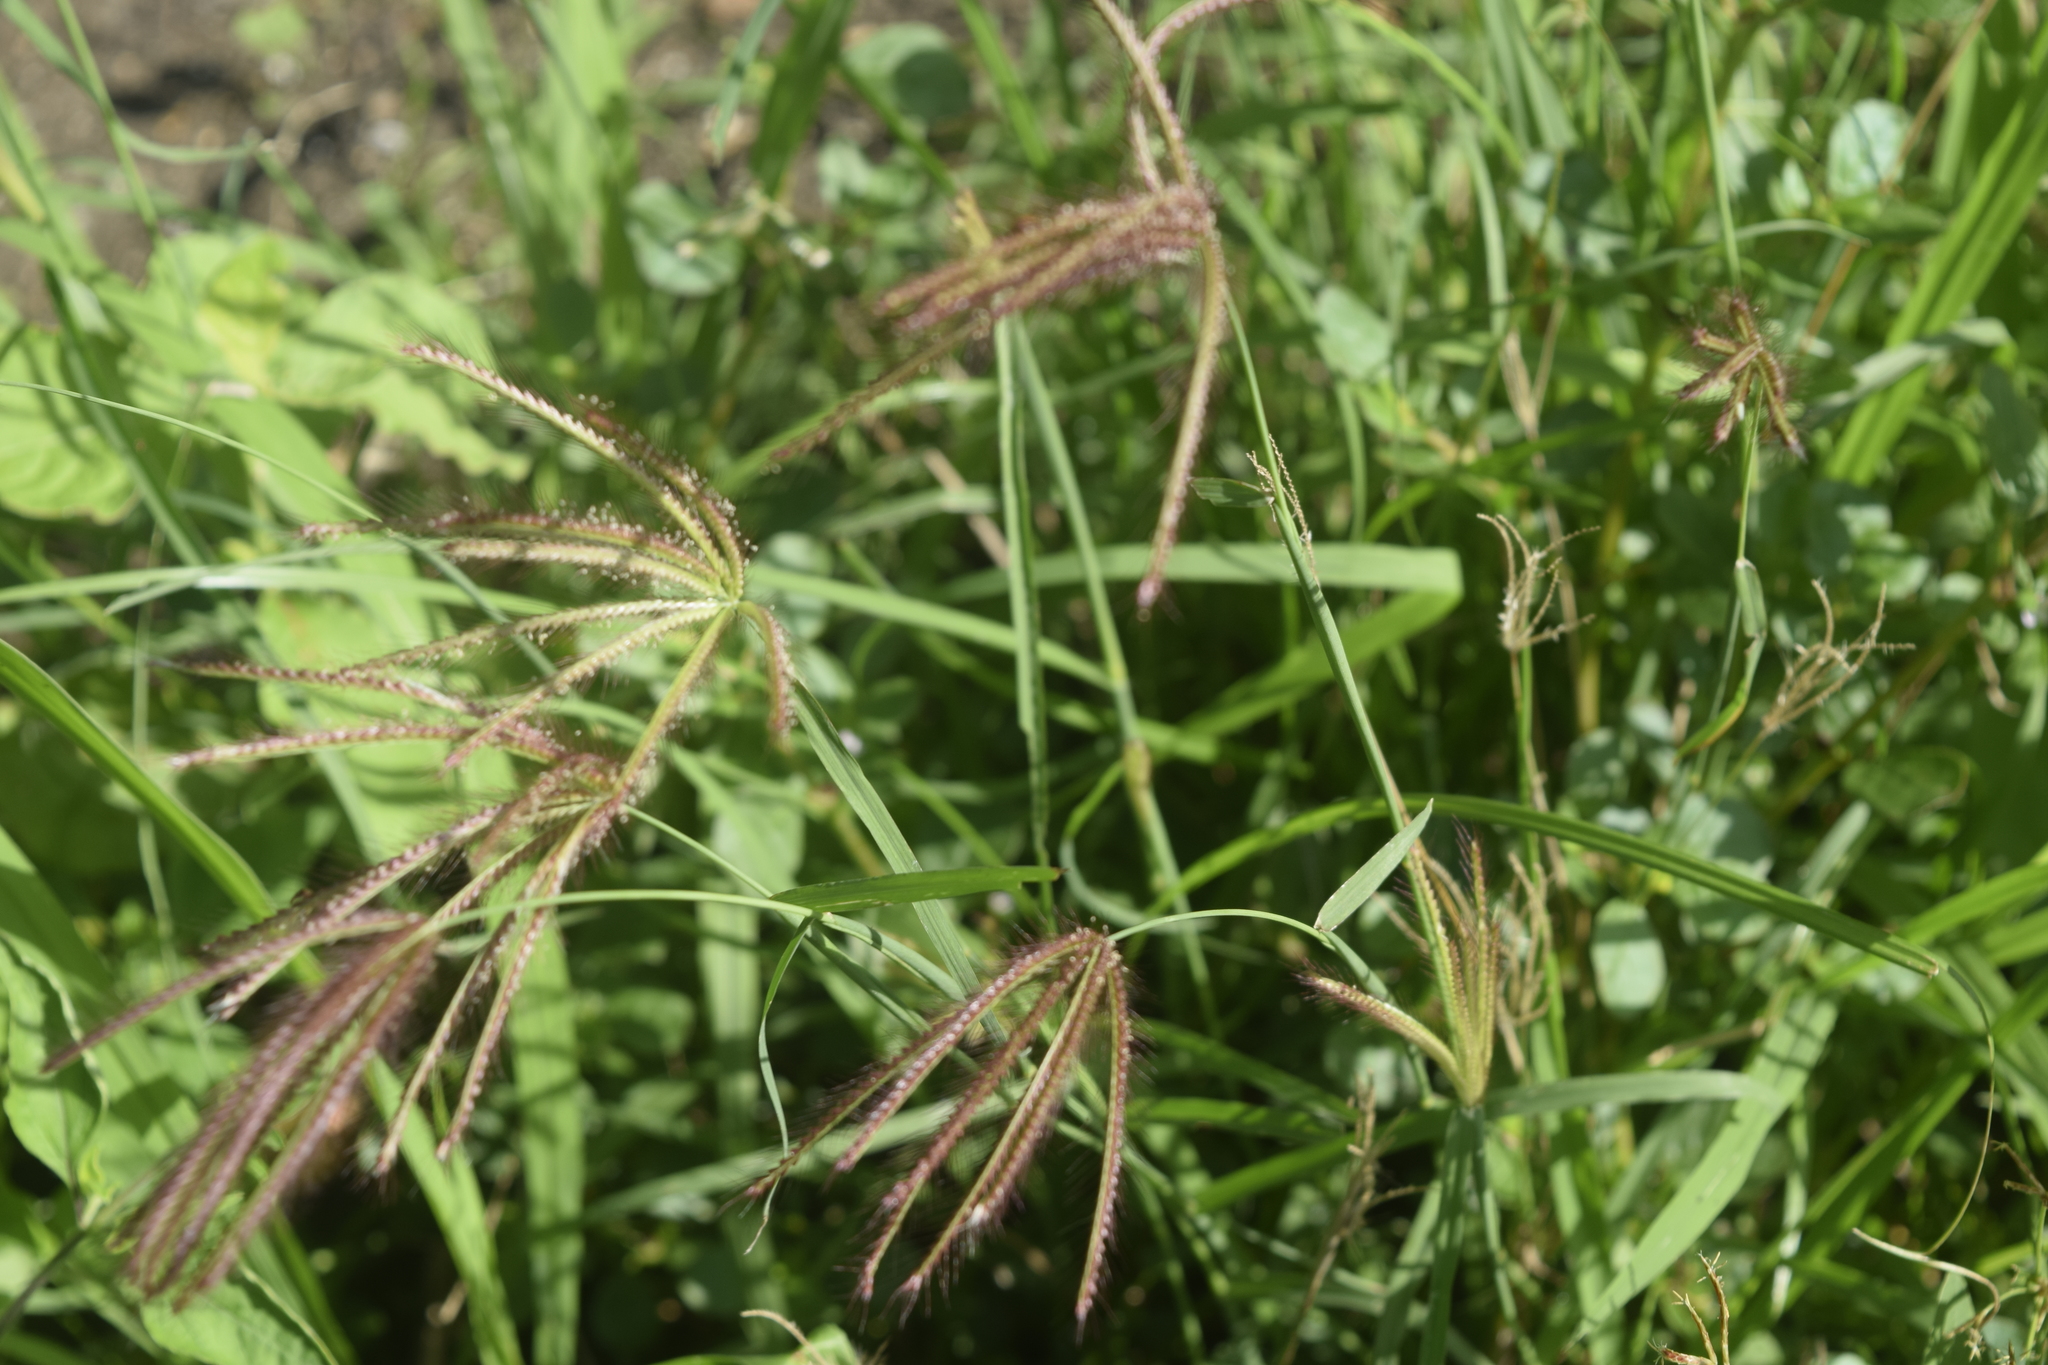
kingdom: Plantae
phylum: Tracheophyta
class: Liliopsida
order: Poales
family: Poaceae
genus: Chloris
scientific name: Chloris barbata
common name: Swollen fingergrass
